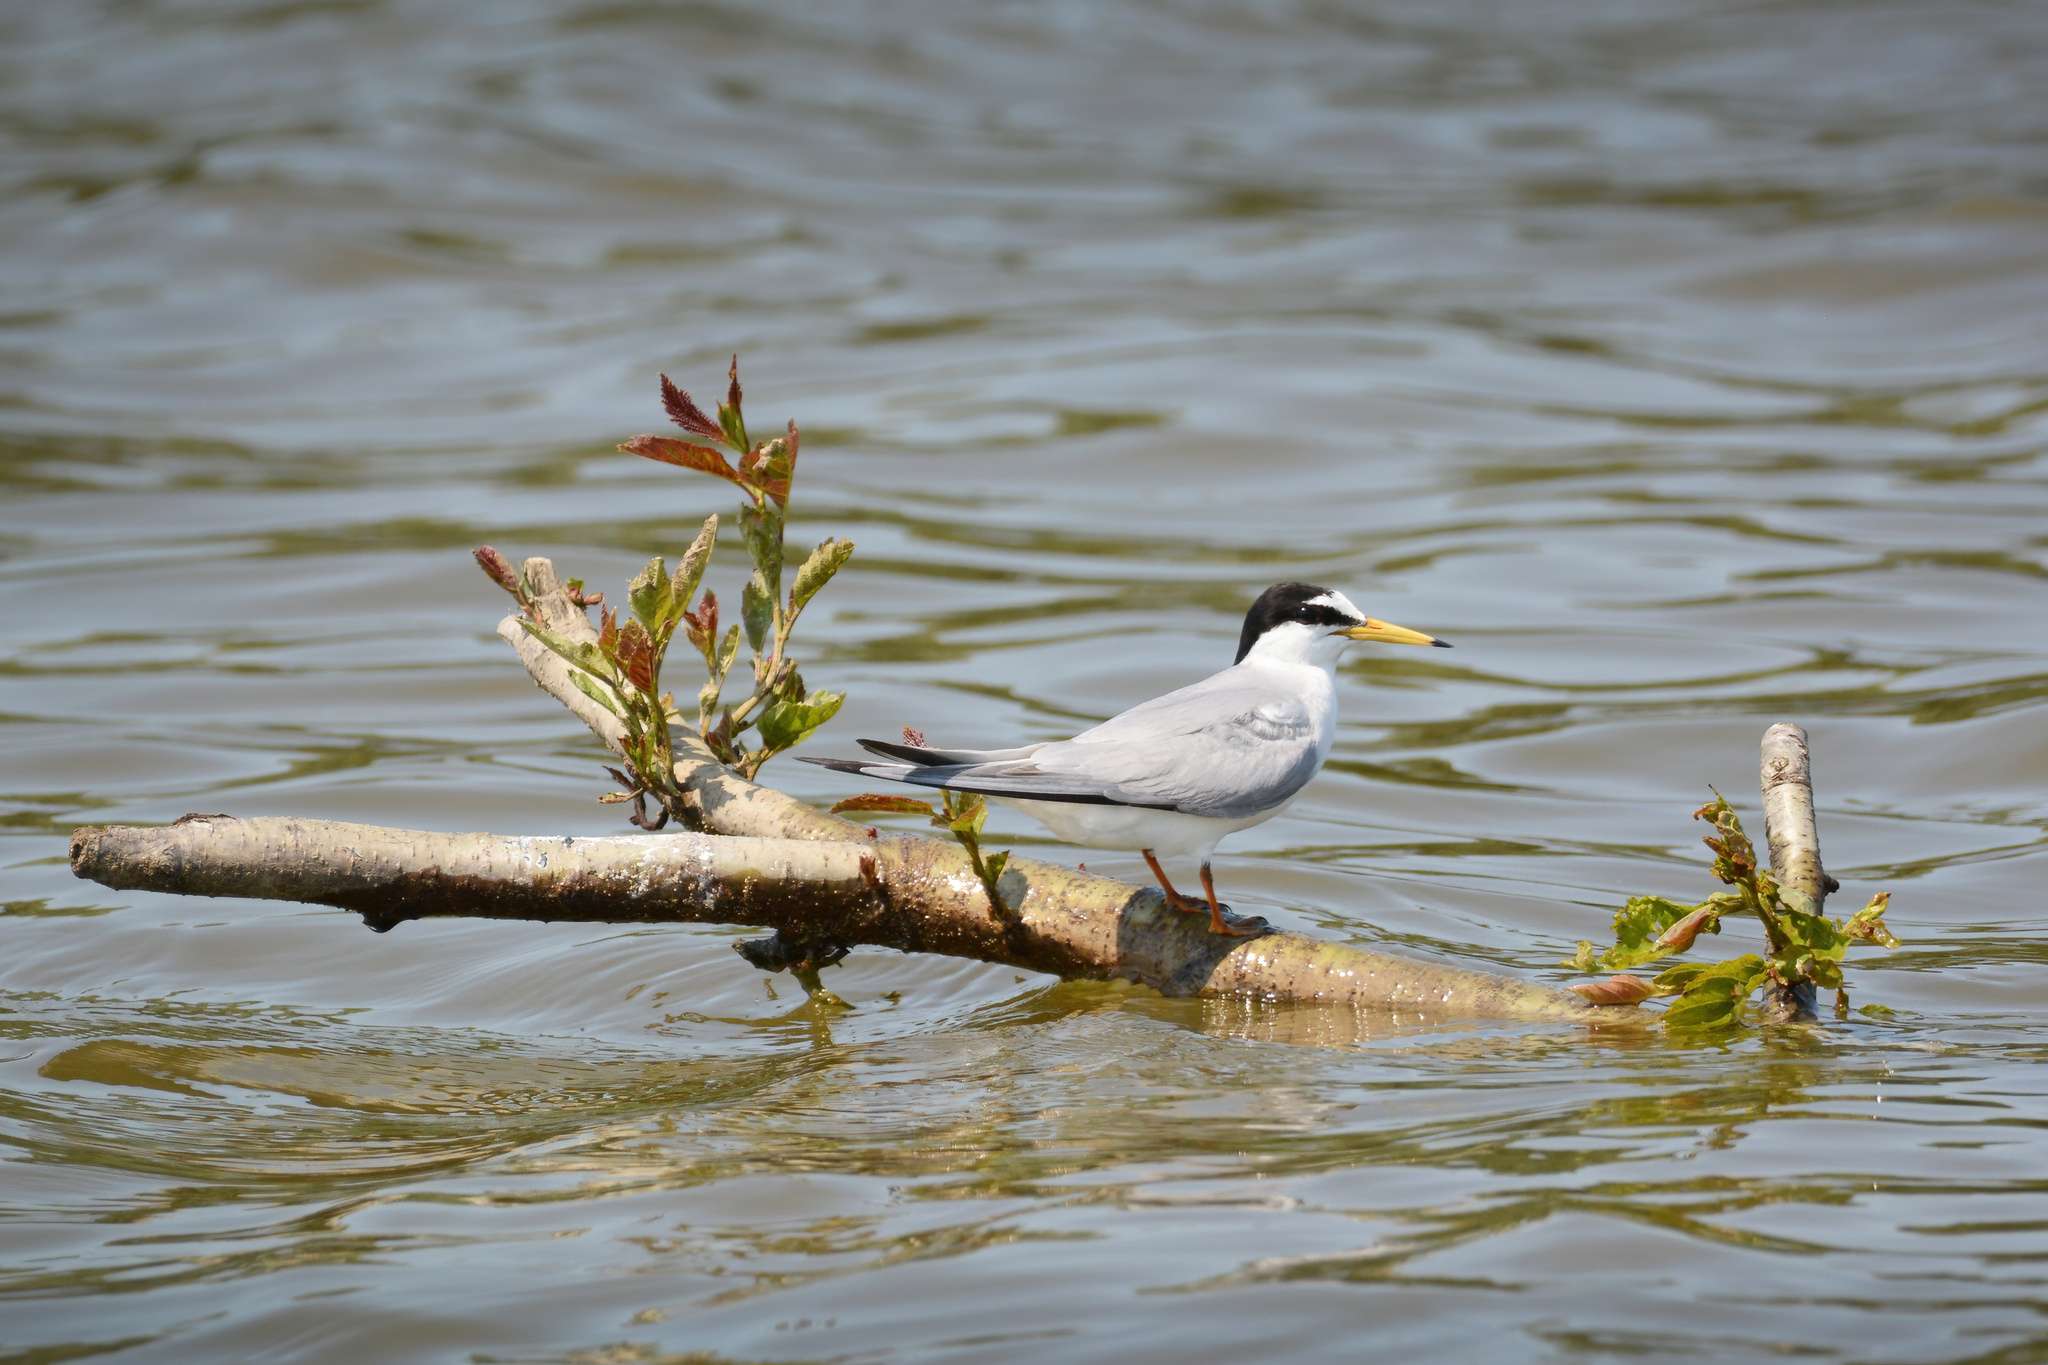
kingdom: Animalia
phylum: Chordata
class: Aves
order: Charadriiformes
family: Laridae
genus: Sternula
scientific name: Sternula albifrons
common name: Little tern
